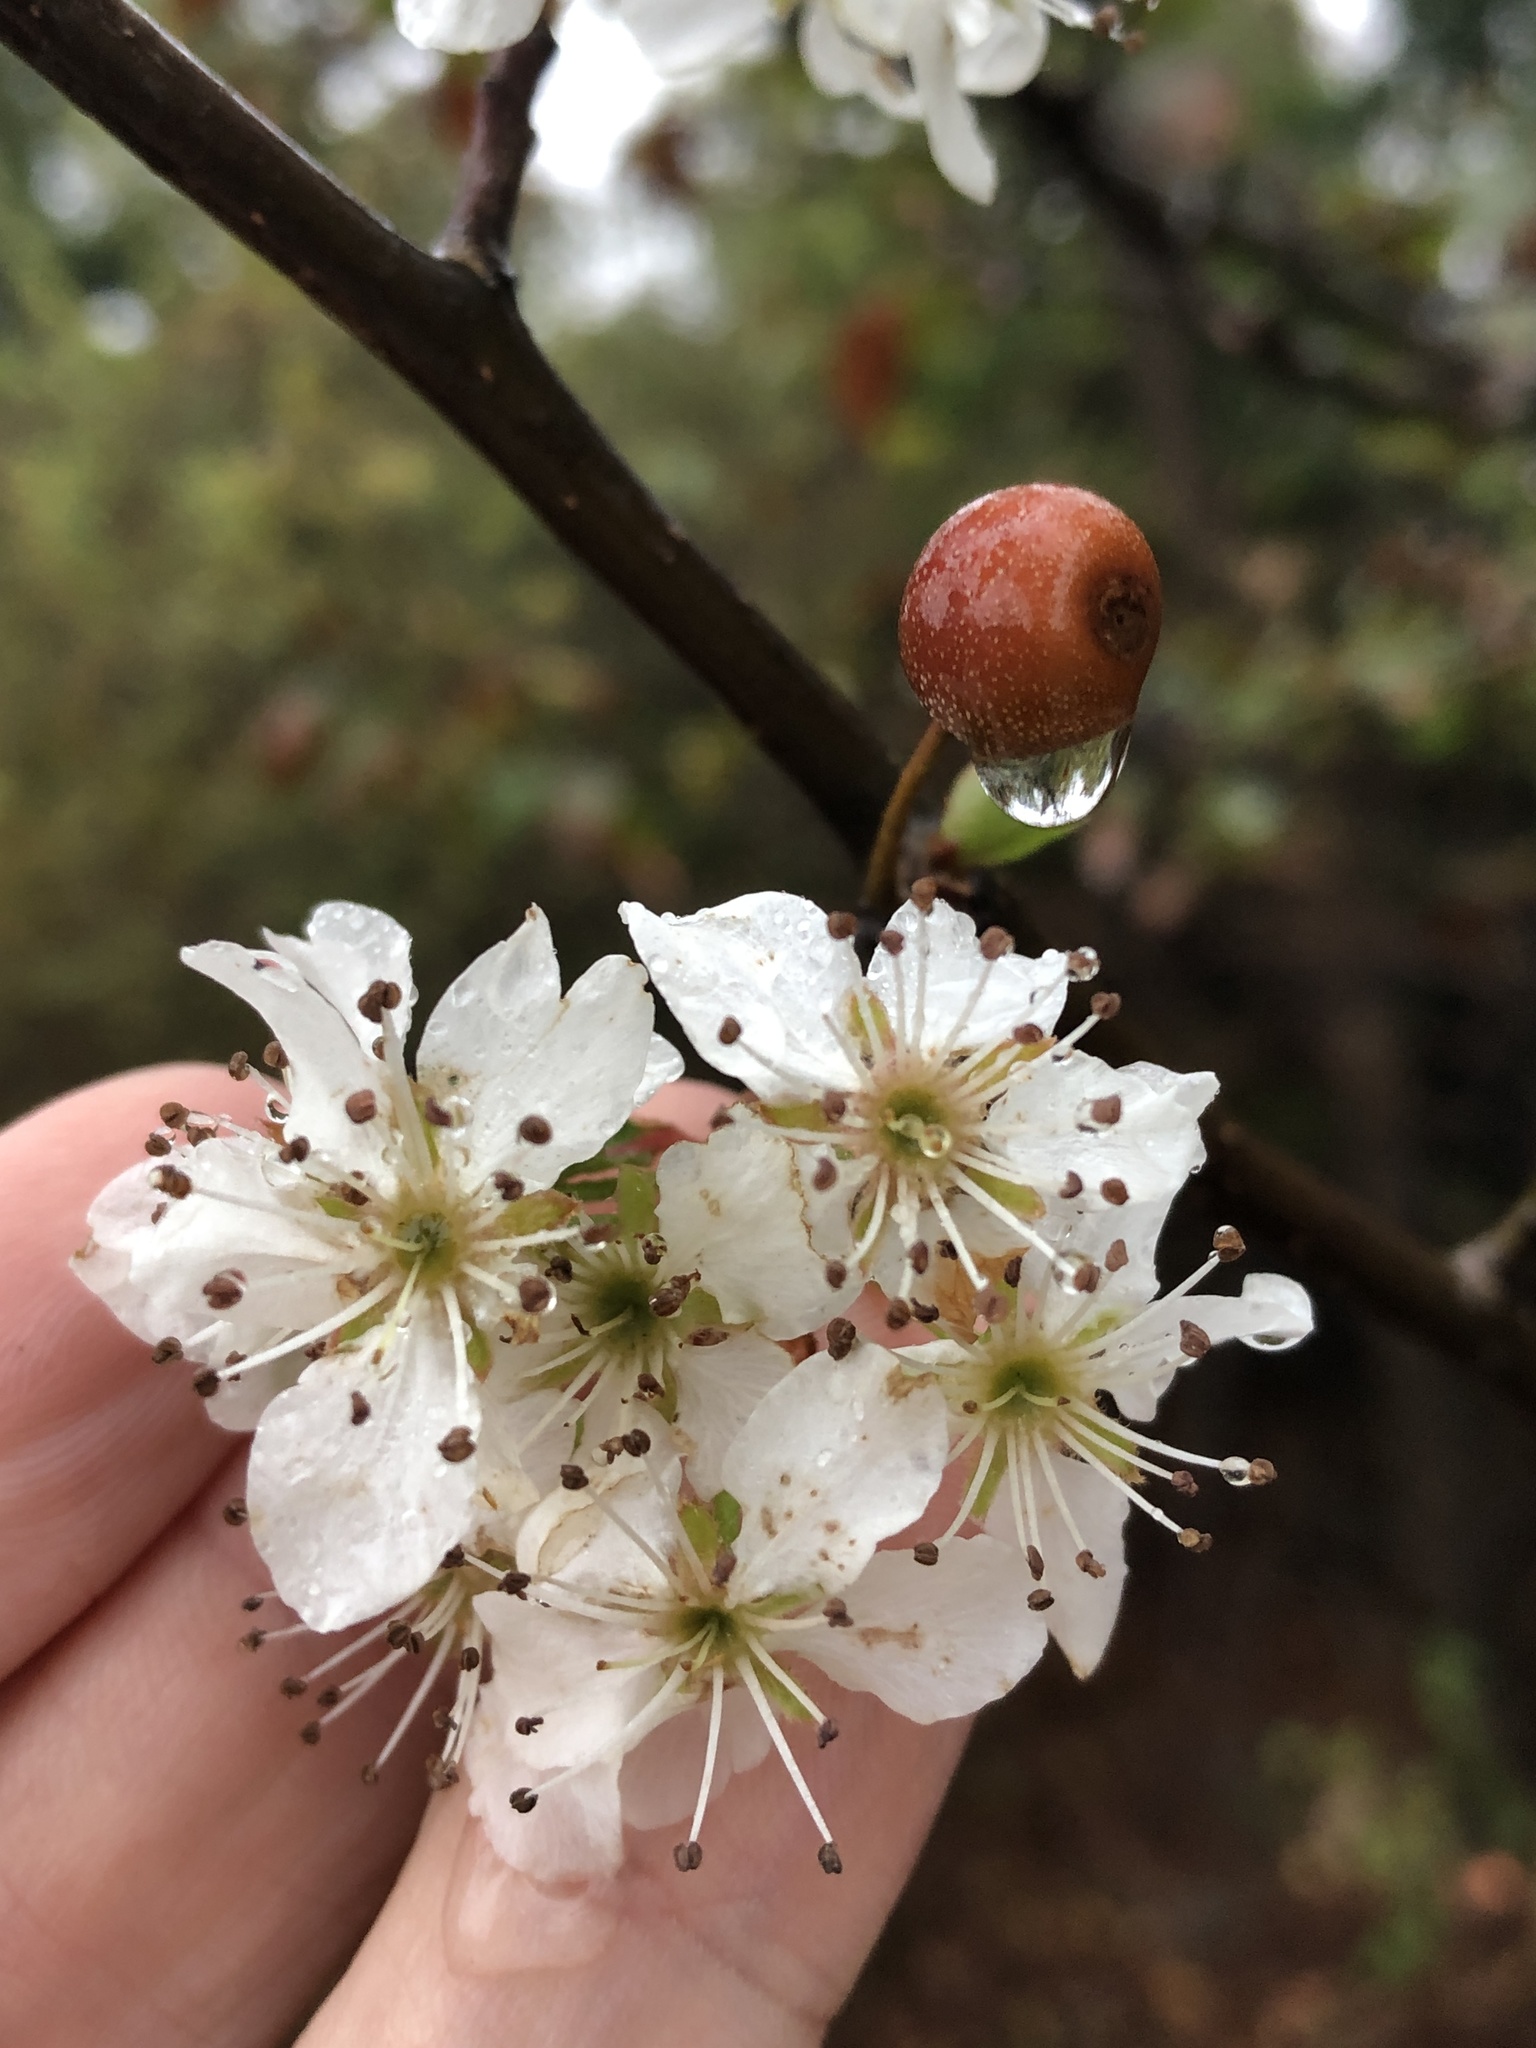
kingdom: Plantae
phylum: Tracheophyta
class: Magnoliopsida
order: Rosales
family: Rosaceae
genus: Pyrus
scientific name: Pyrus calleryana
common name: Callery pear
